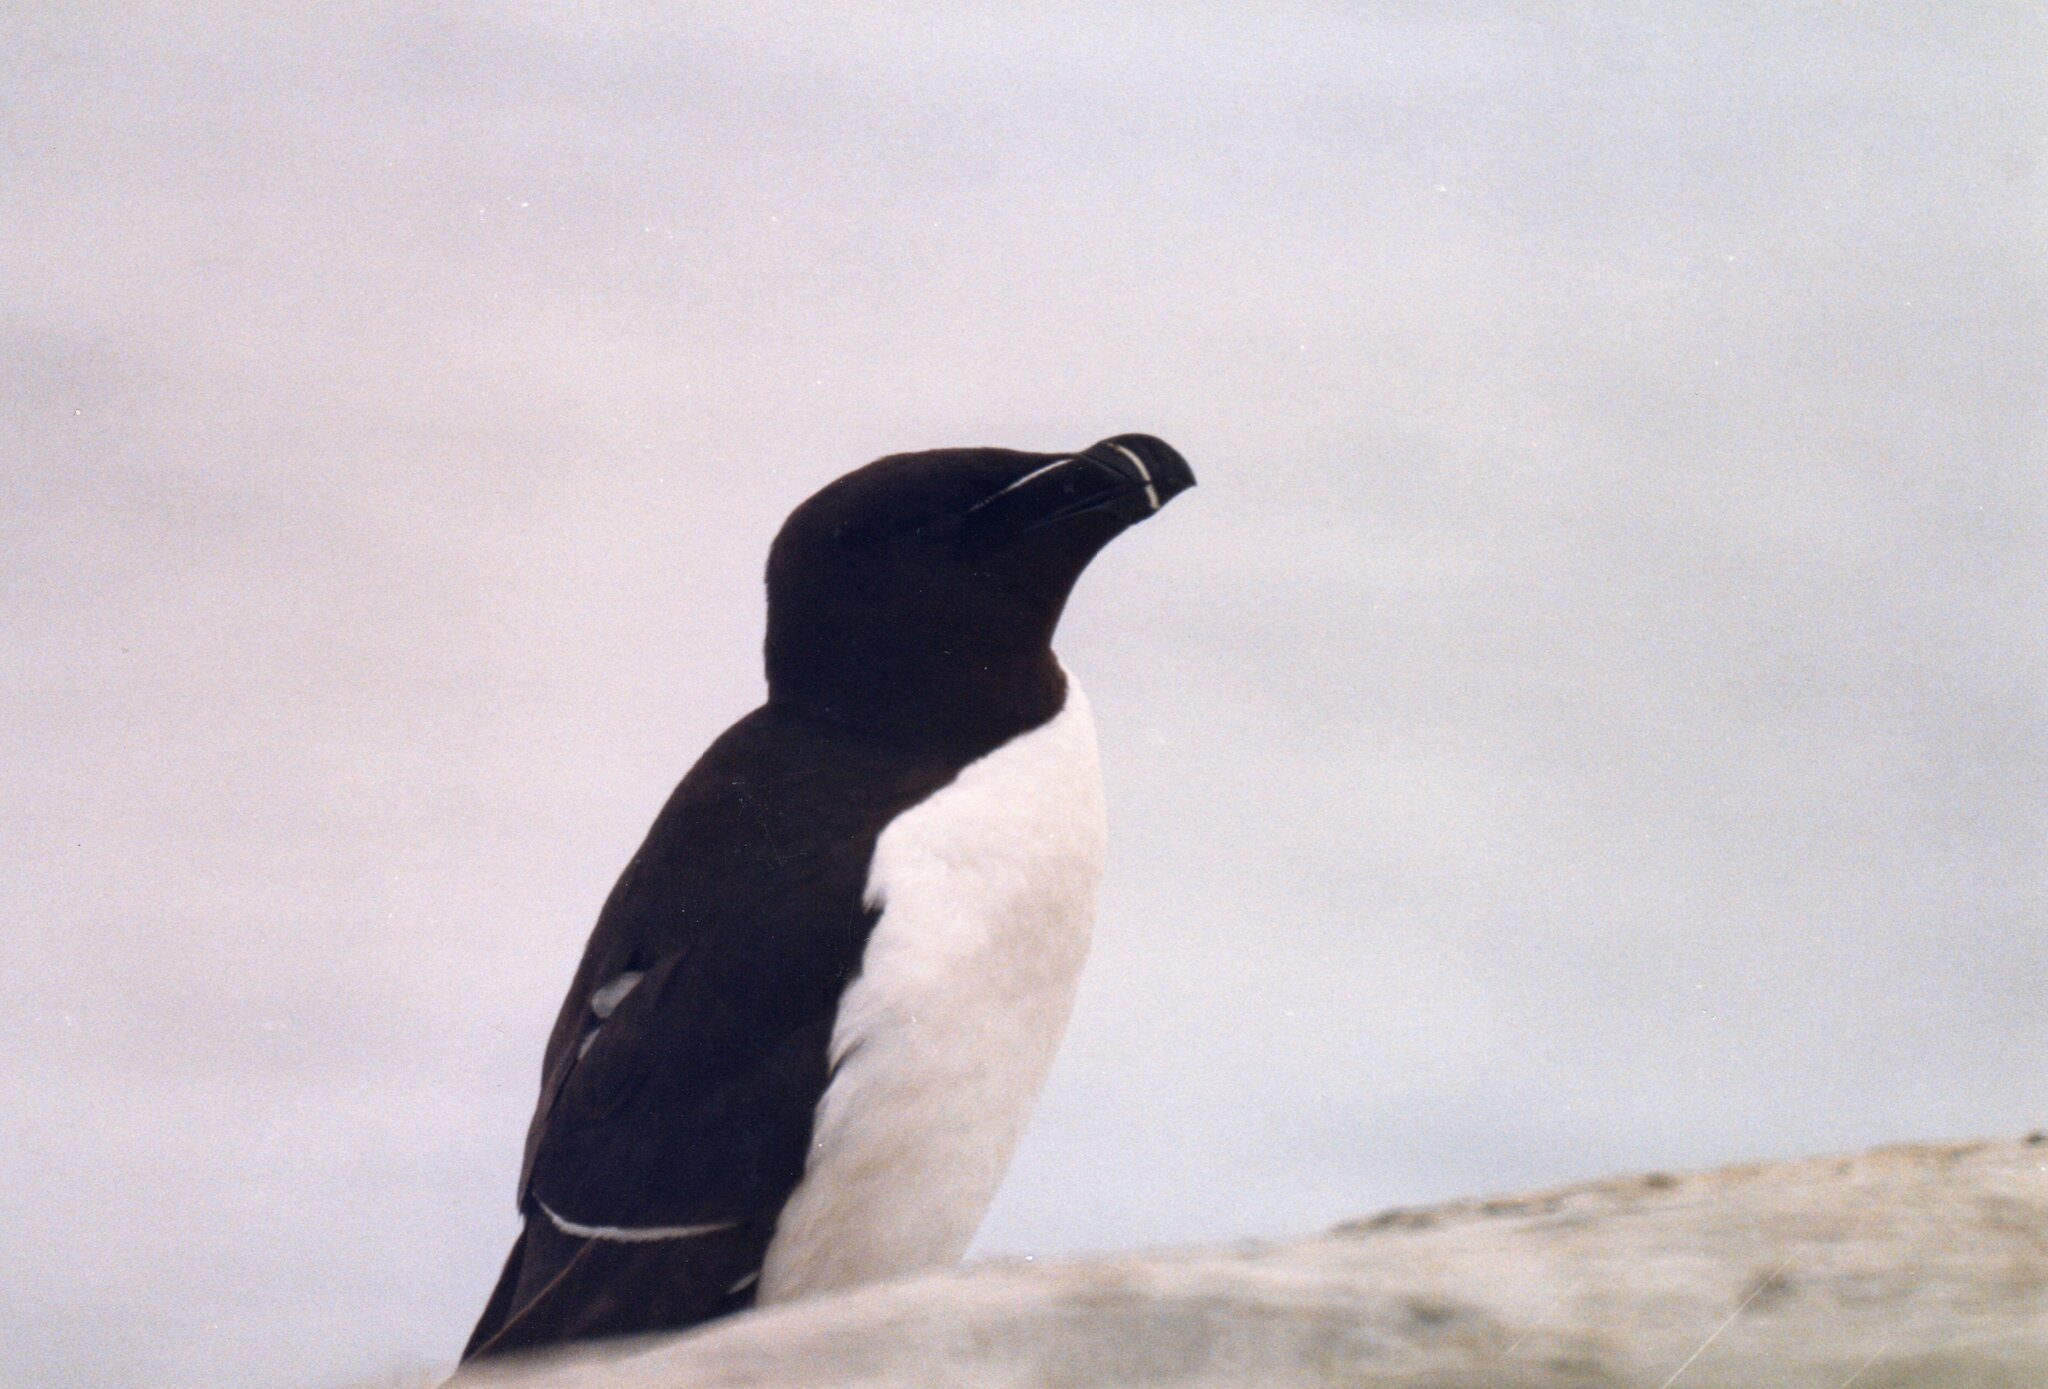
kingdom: Animalia
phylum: Chordata
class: Aves
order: Charadriiformes
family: Alcidae
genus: Alca
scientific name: Alca torda
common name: Razorbill
